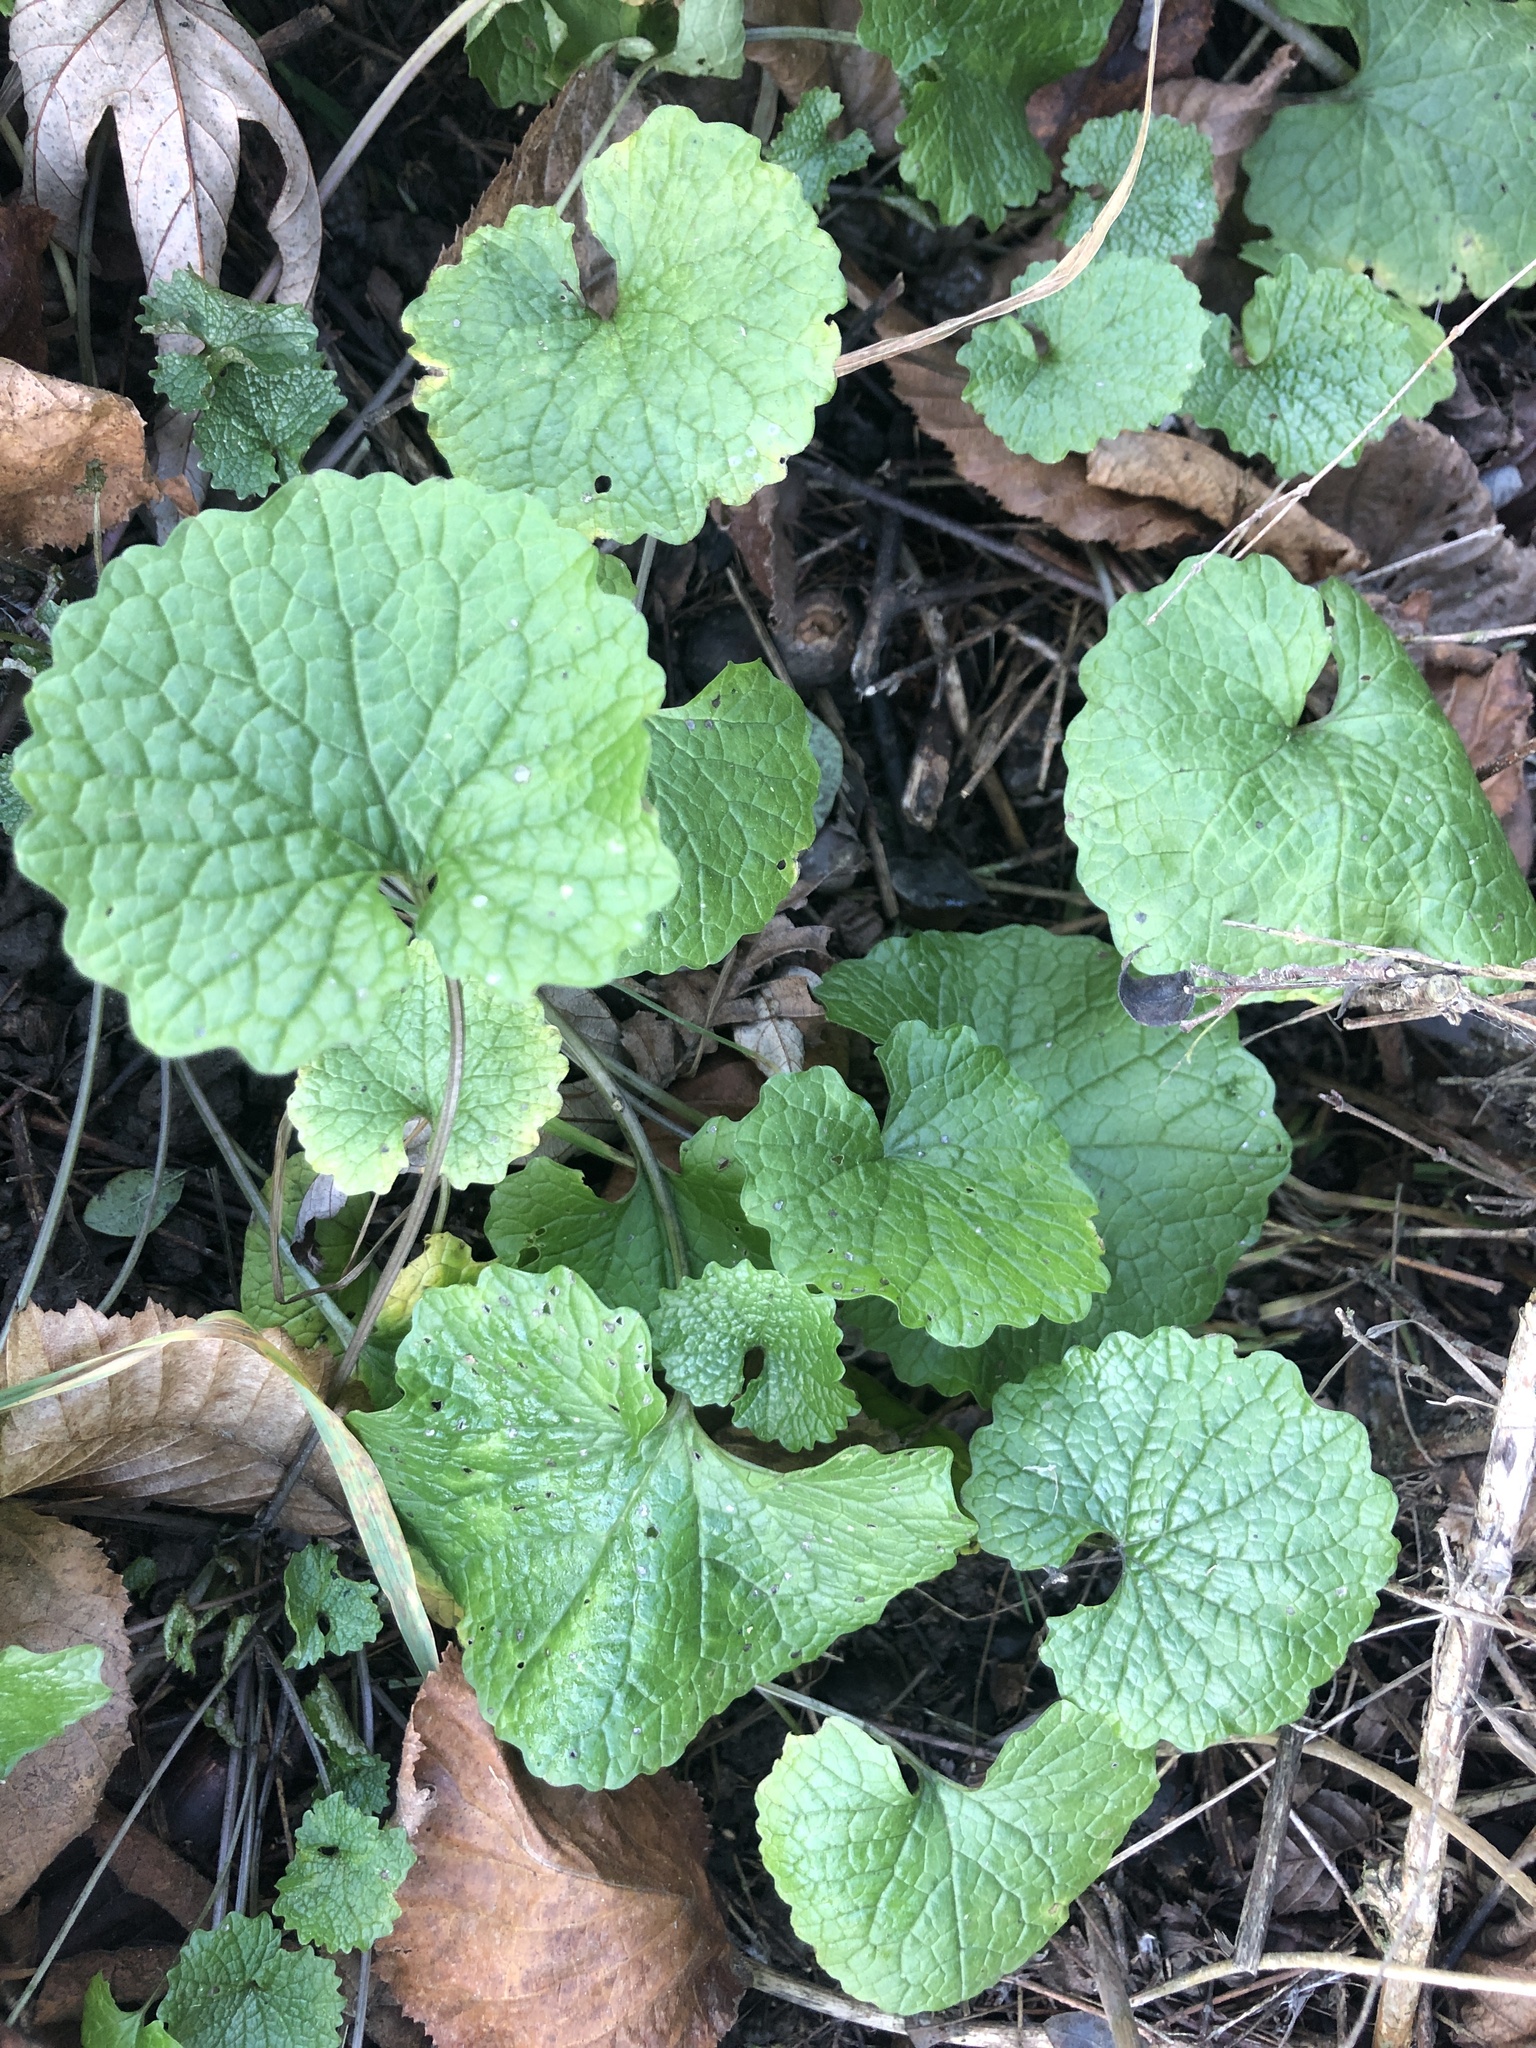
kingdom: Plantae
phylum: Tracheophyta
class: Magnoliopsida
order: Brassicales
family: Brassicaceae
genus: Alliaria
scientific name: Alliaria petiolata
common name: Garlic mustard
